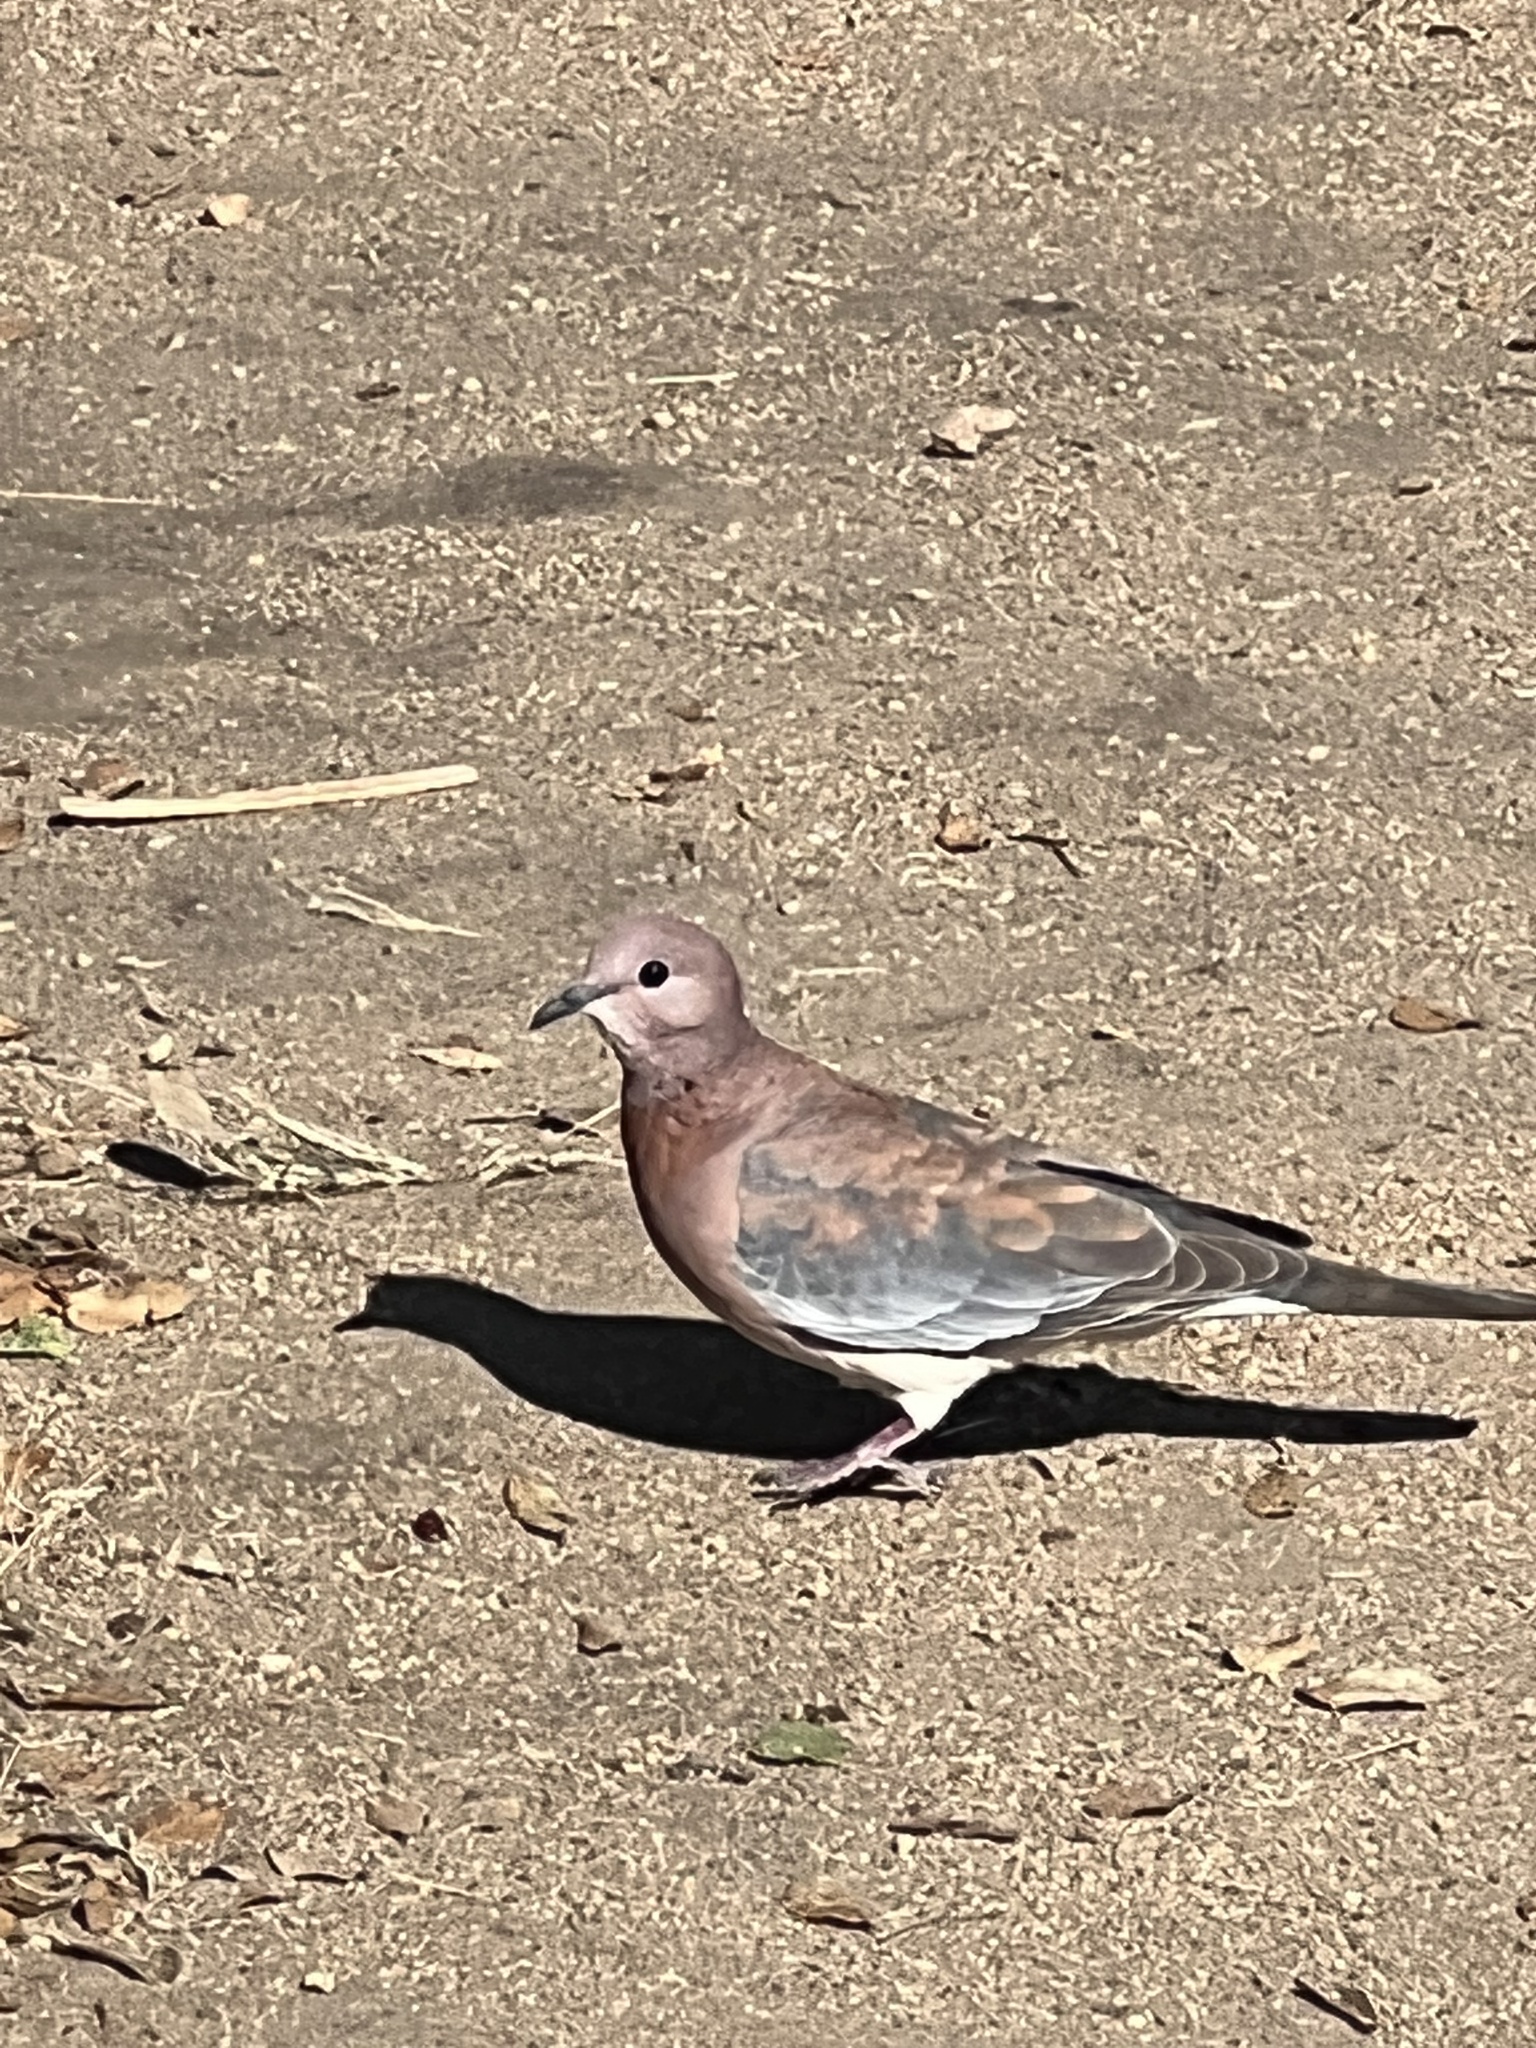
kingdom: Animalia
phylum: Chordata
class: Aves
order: Columbiformes
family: Columbidae
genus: Spilopelia
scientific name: Spilopelia senegalensis
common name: Laughing dove
